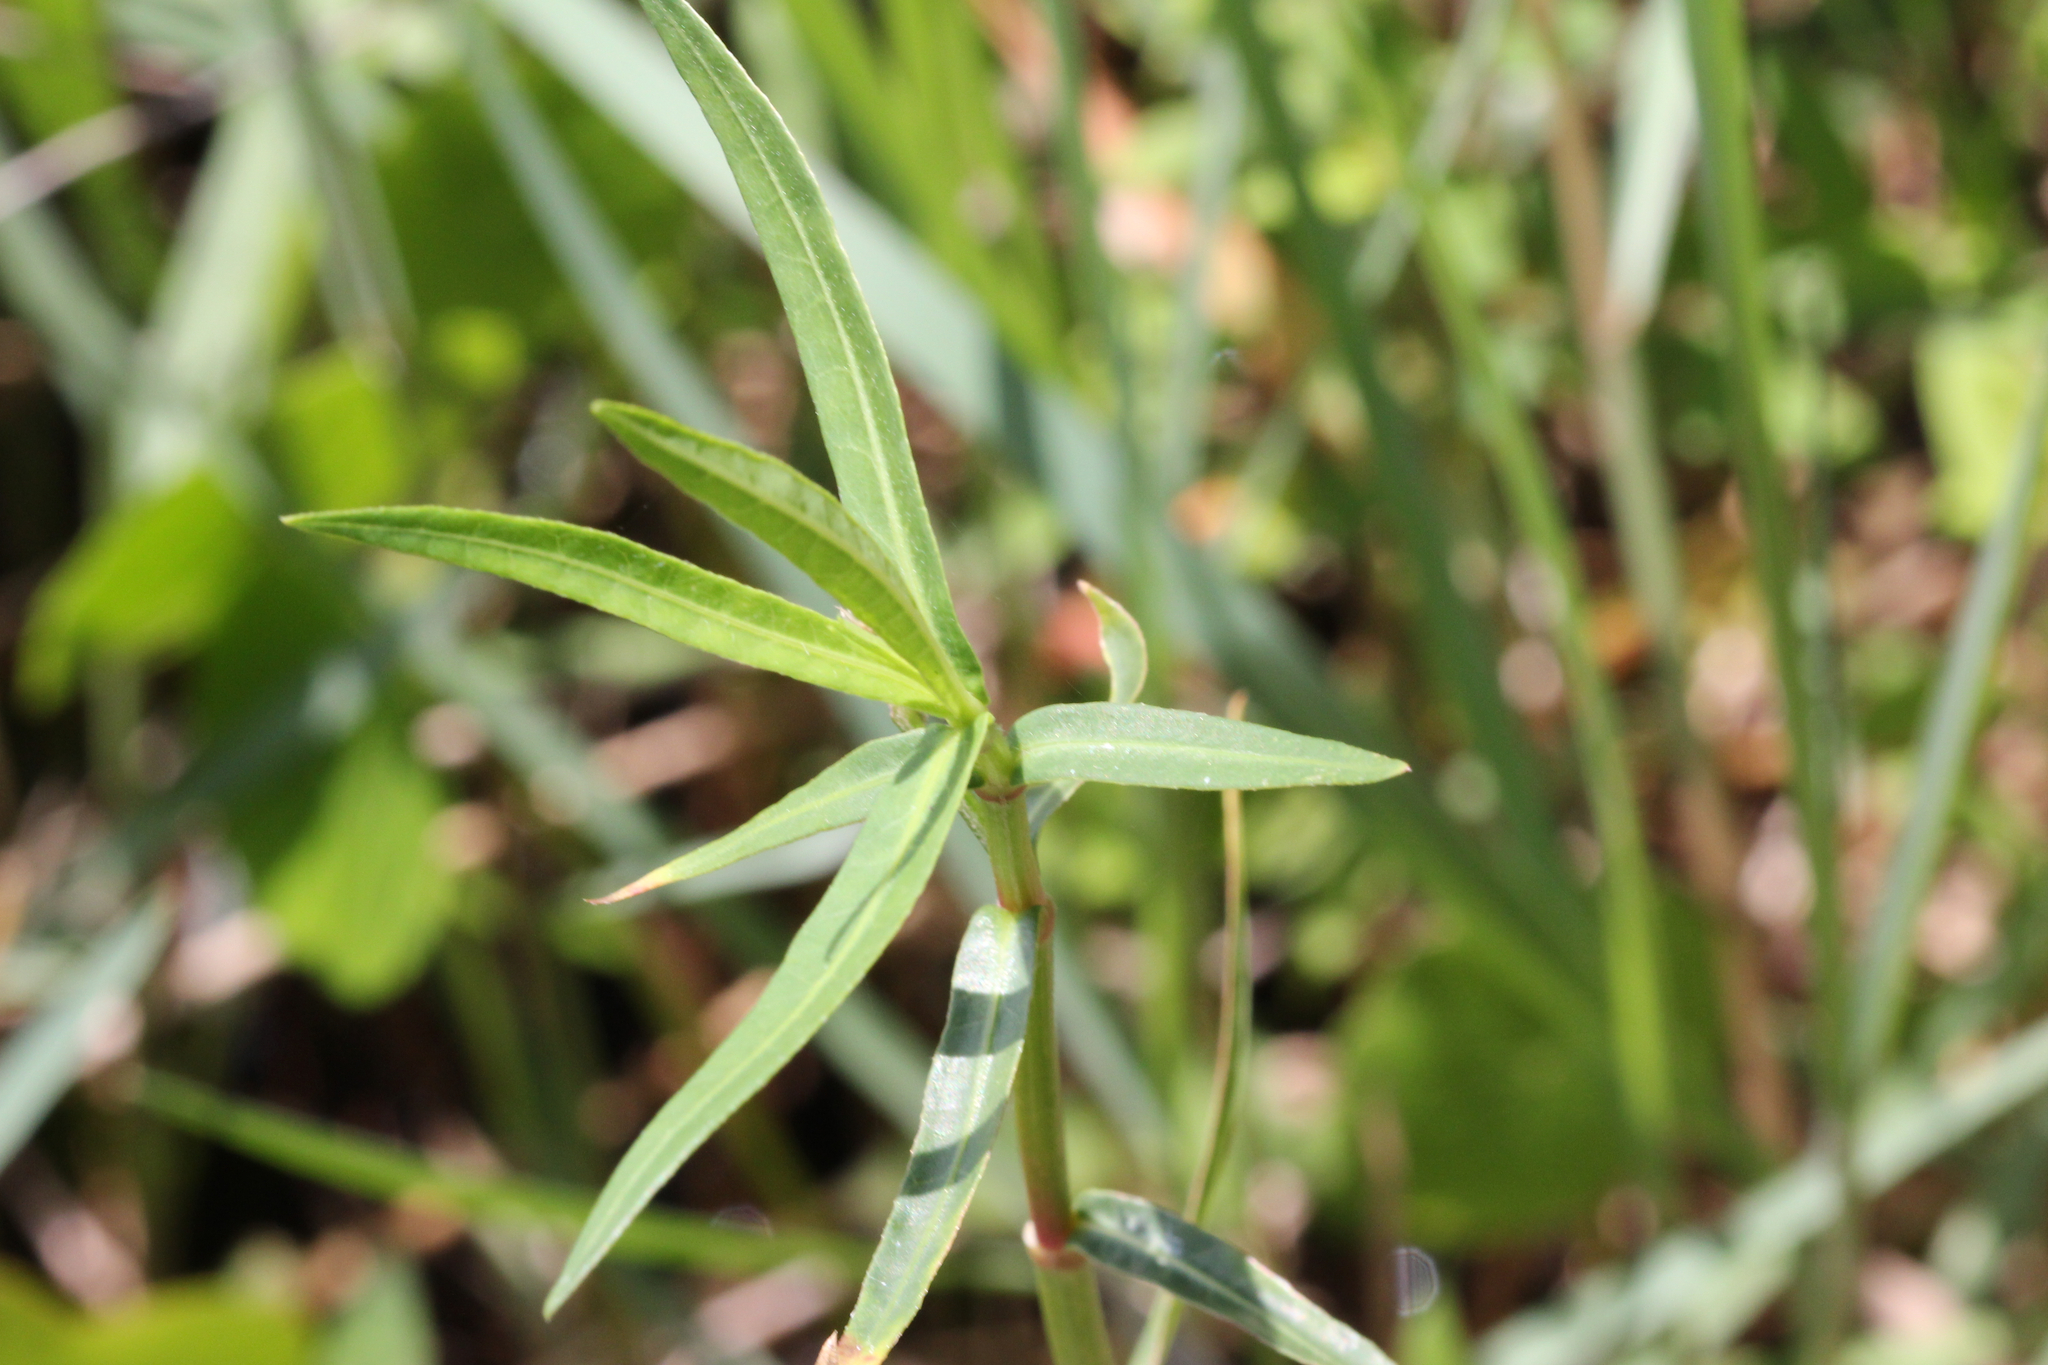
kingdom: Plantae
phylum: Tracheophyta
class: Magnoliopsida
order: Caryophyllales
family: Amaranthaceae
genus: Alternanthera
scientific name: Alternanthera philoxeroides
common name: Alligatorweed
